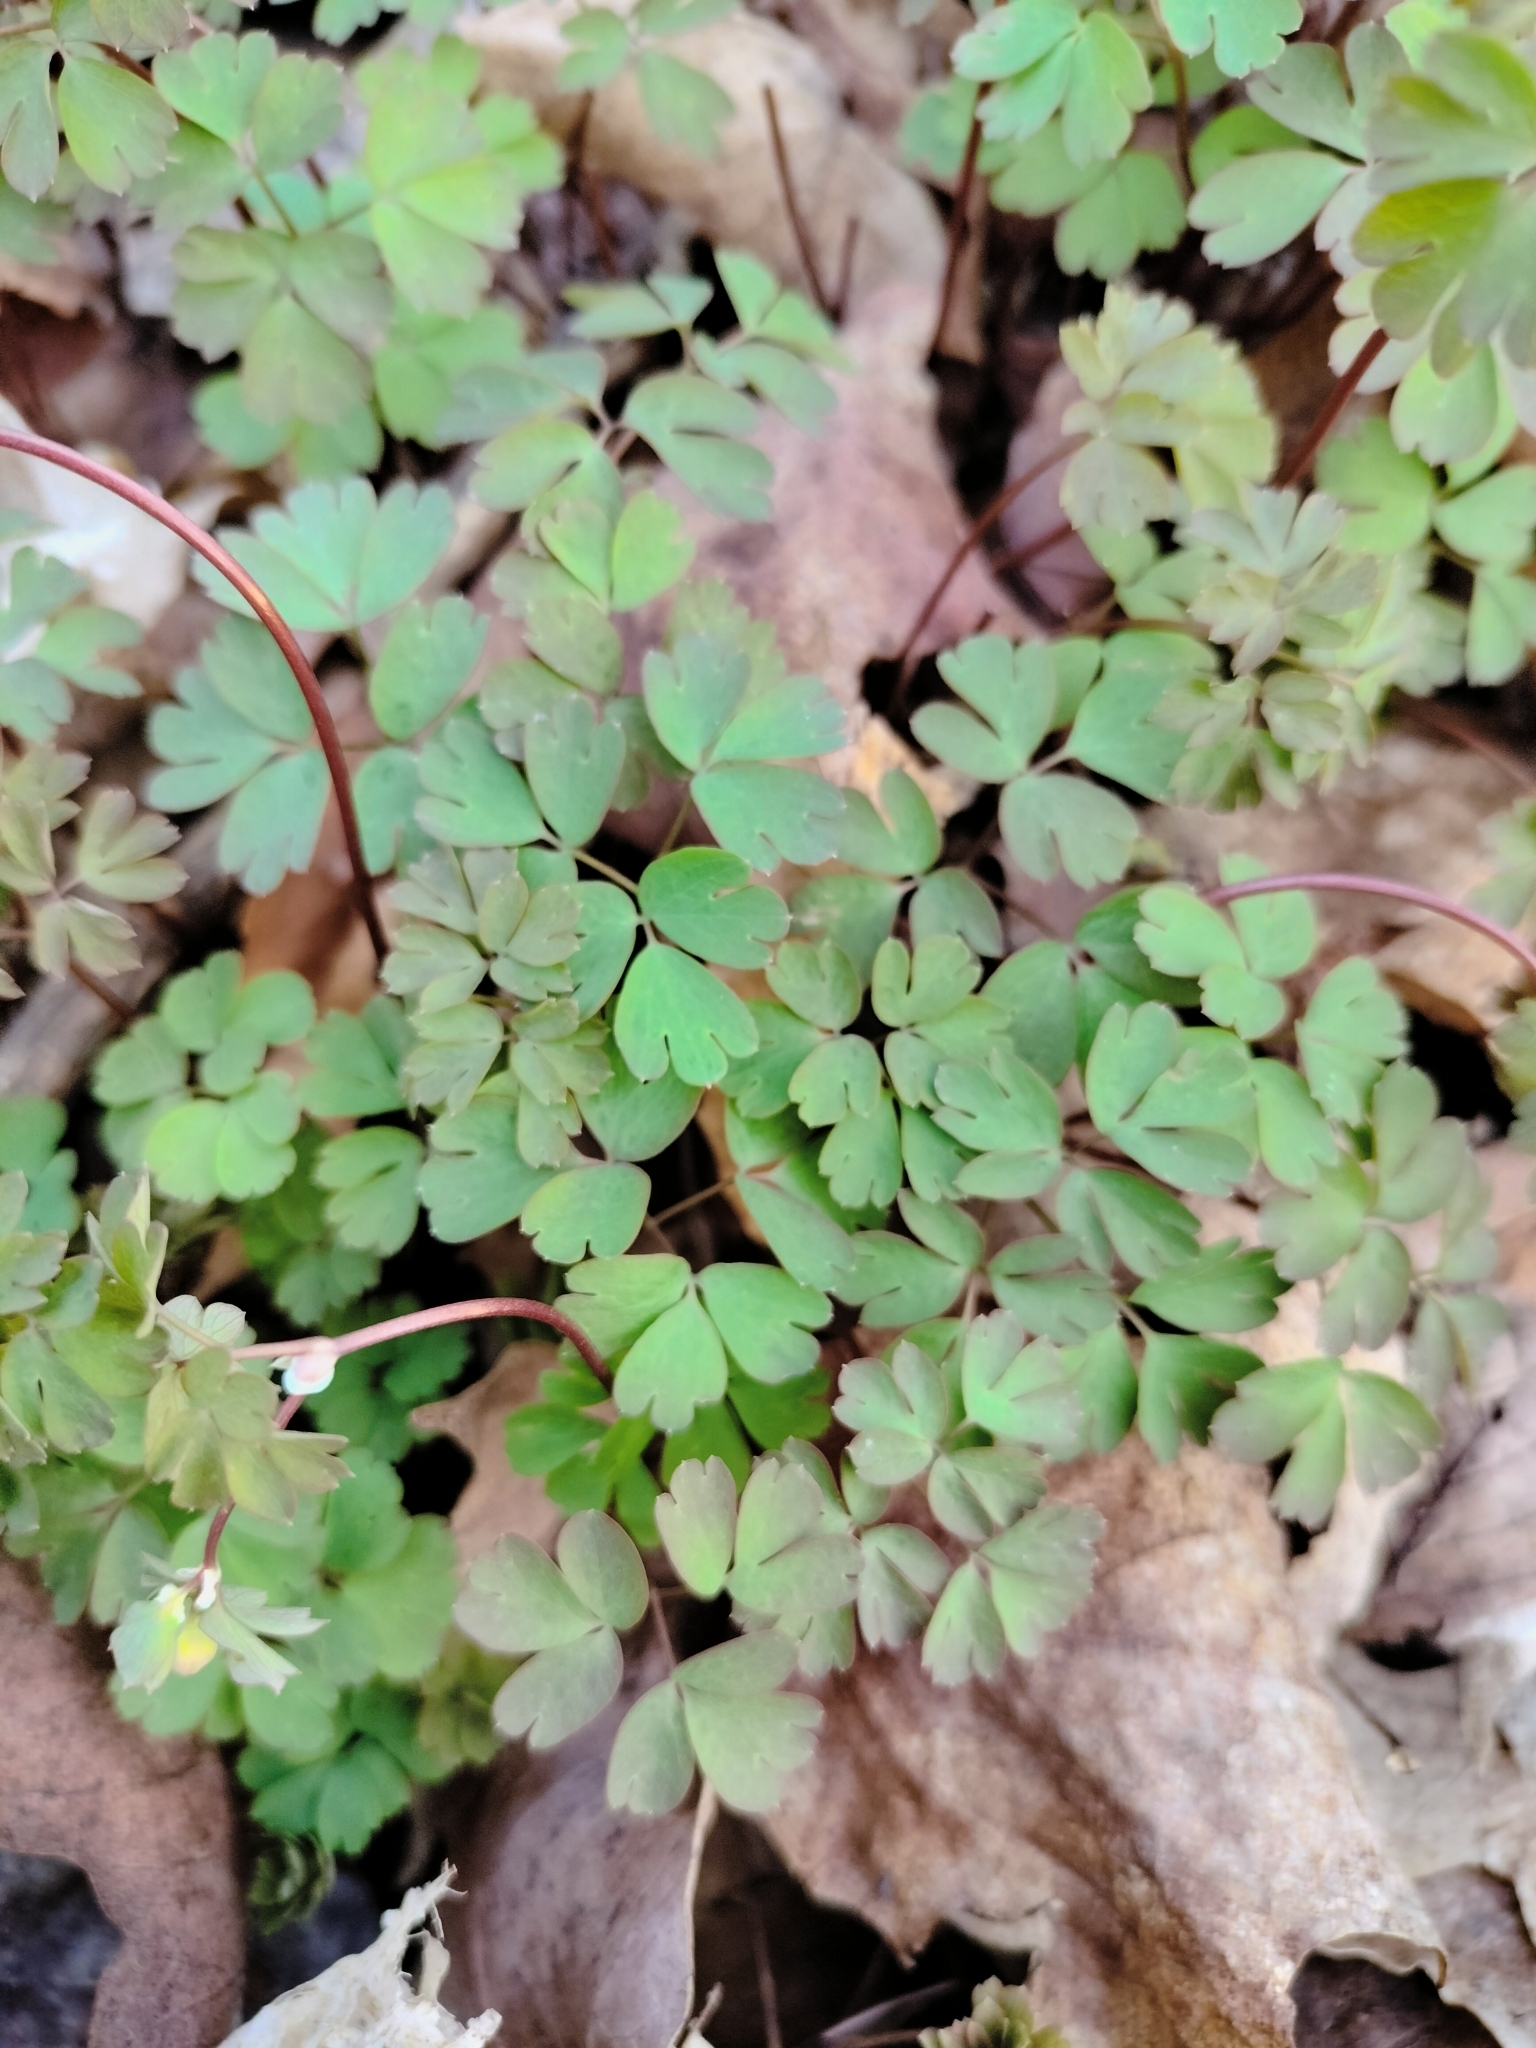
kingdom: Plantae
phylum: Tracheophyta
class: Magnoliopsida
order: Ranunculales
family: Ranunculaceae
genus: Enemion
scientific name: Enemion biternatum
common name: Eastern false rue-anemone
